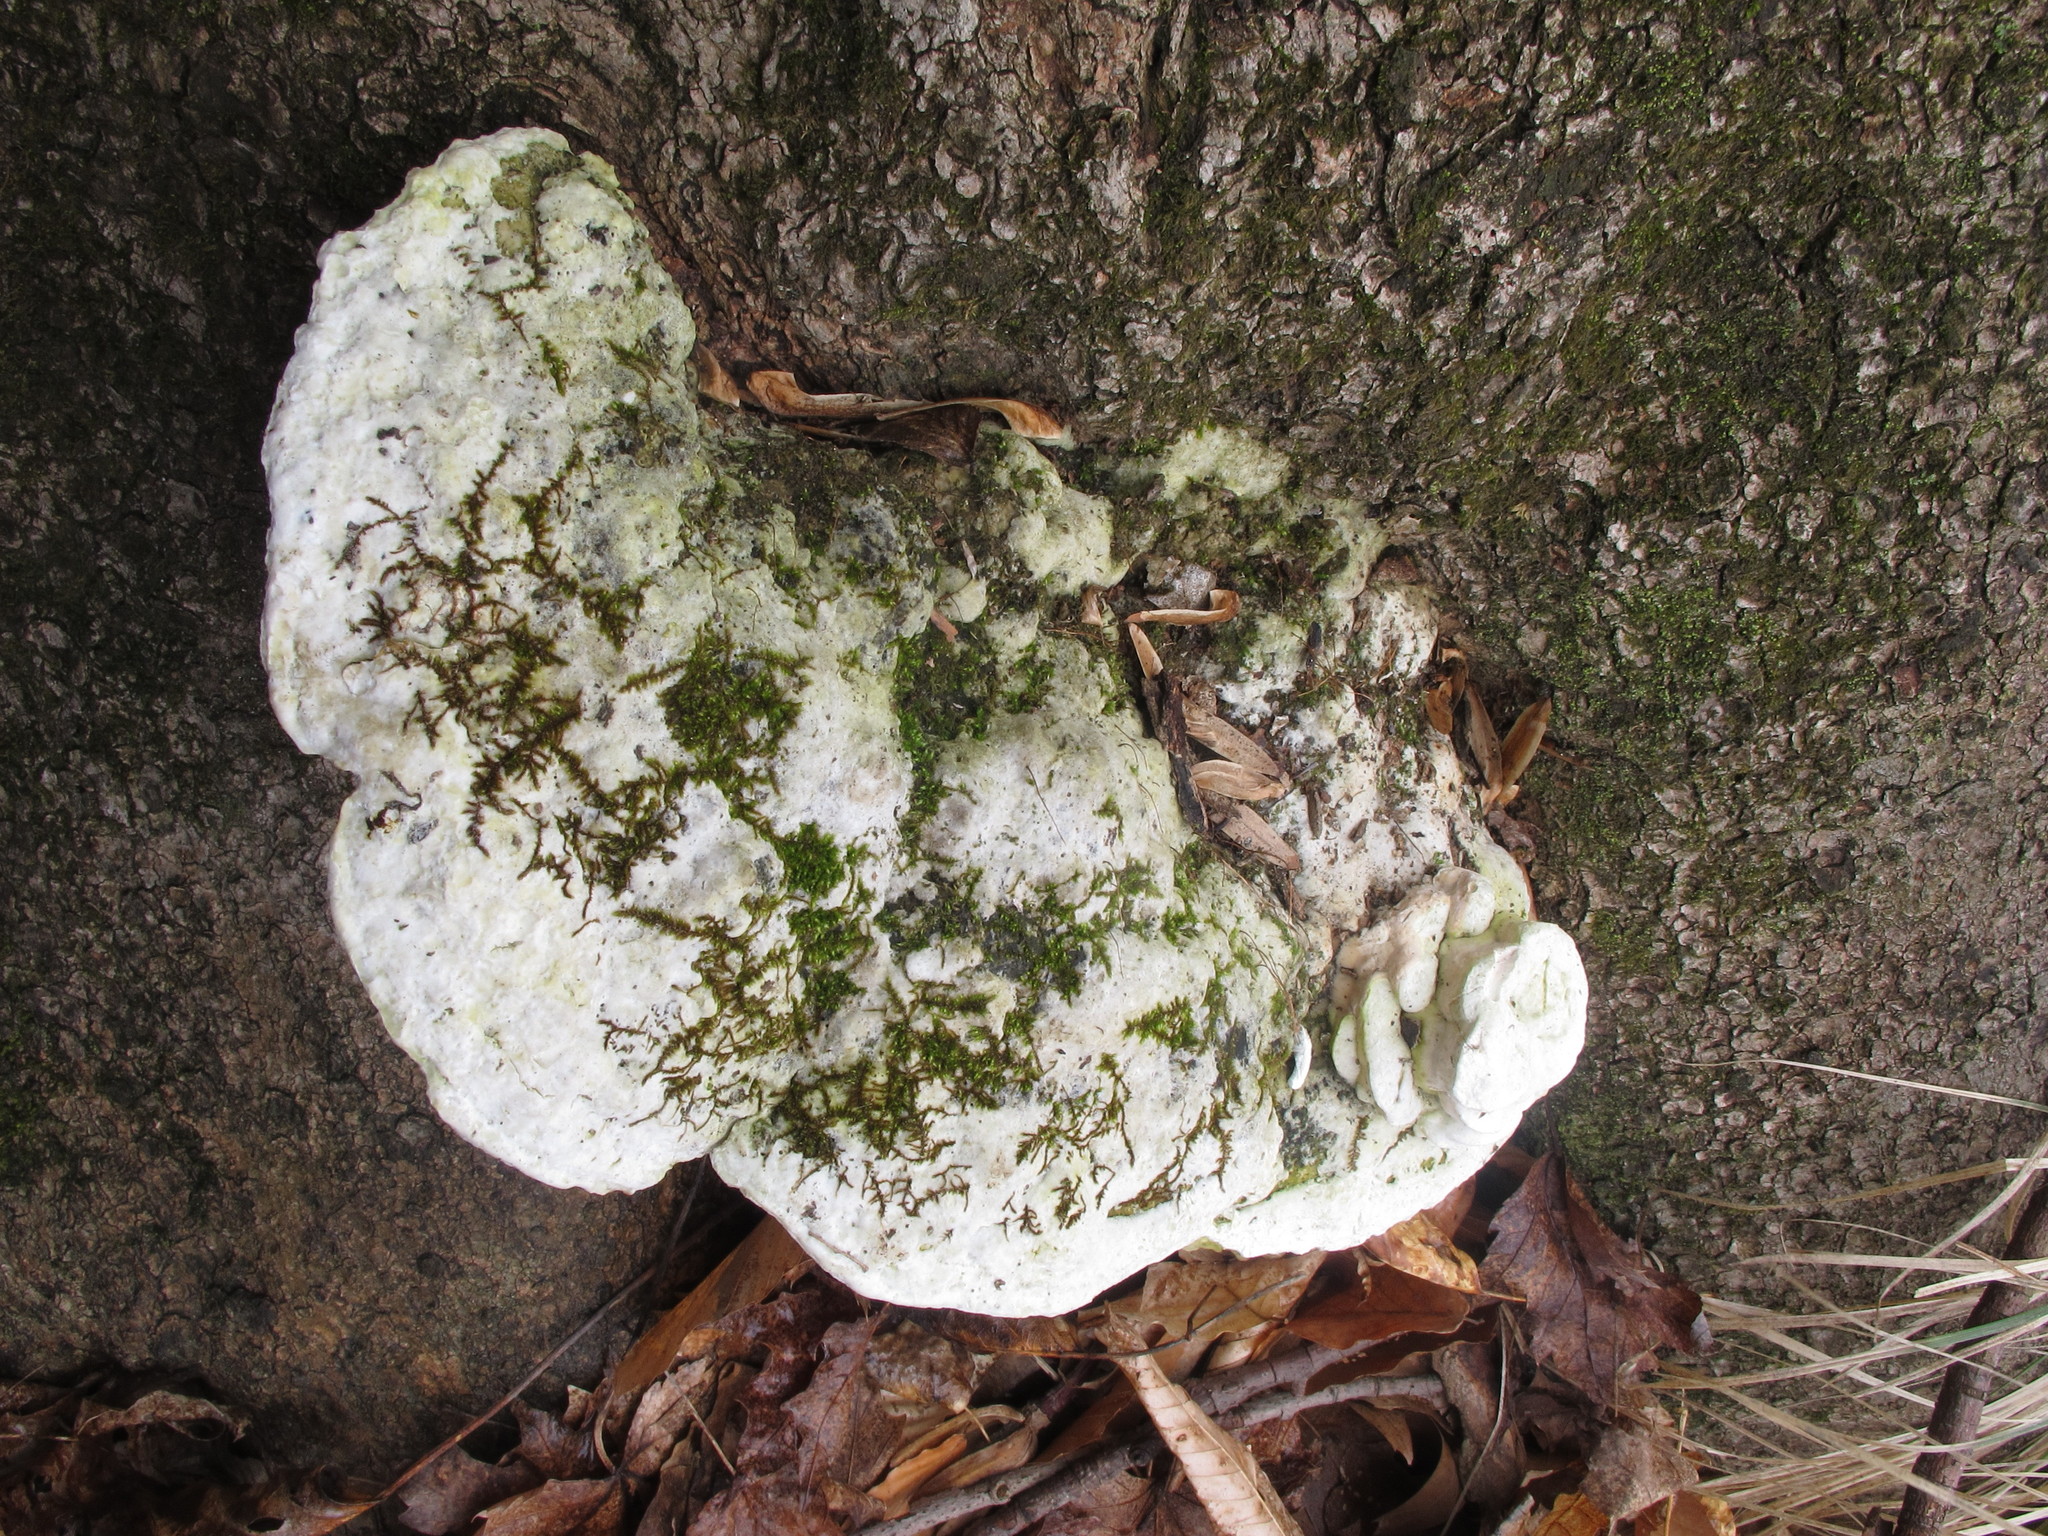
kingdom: Fungi
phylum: Basidiomycota
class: Agaricomycetes
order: Hymenochaetales
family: Oxyporaceae
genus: Oxyporus
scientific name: Oxyporus populinus
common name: Poplar bracket
